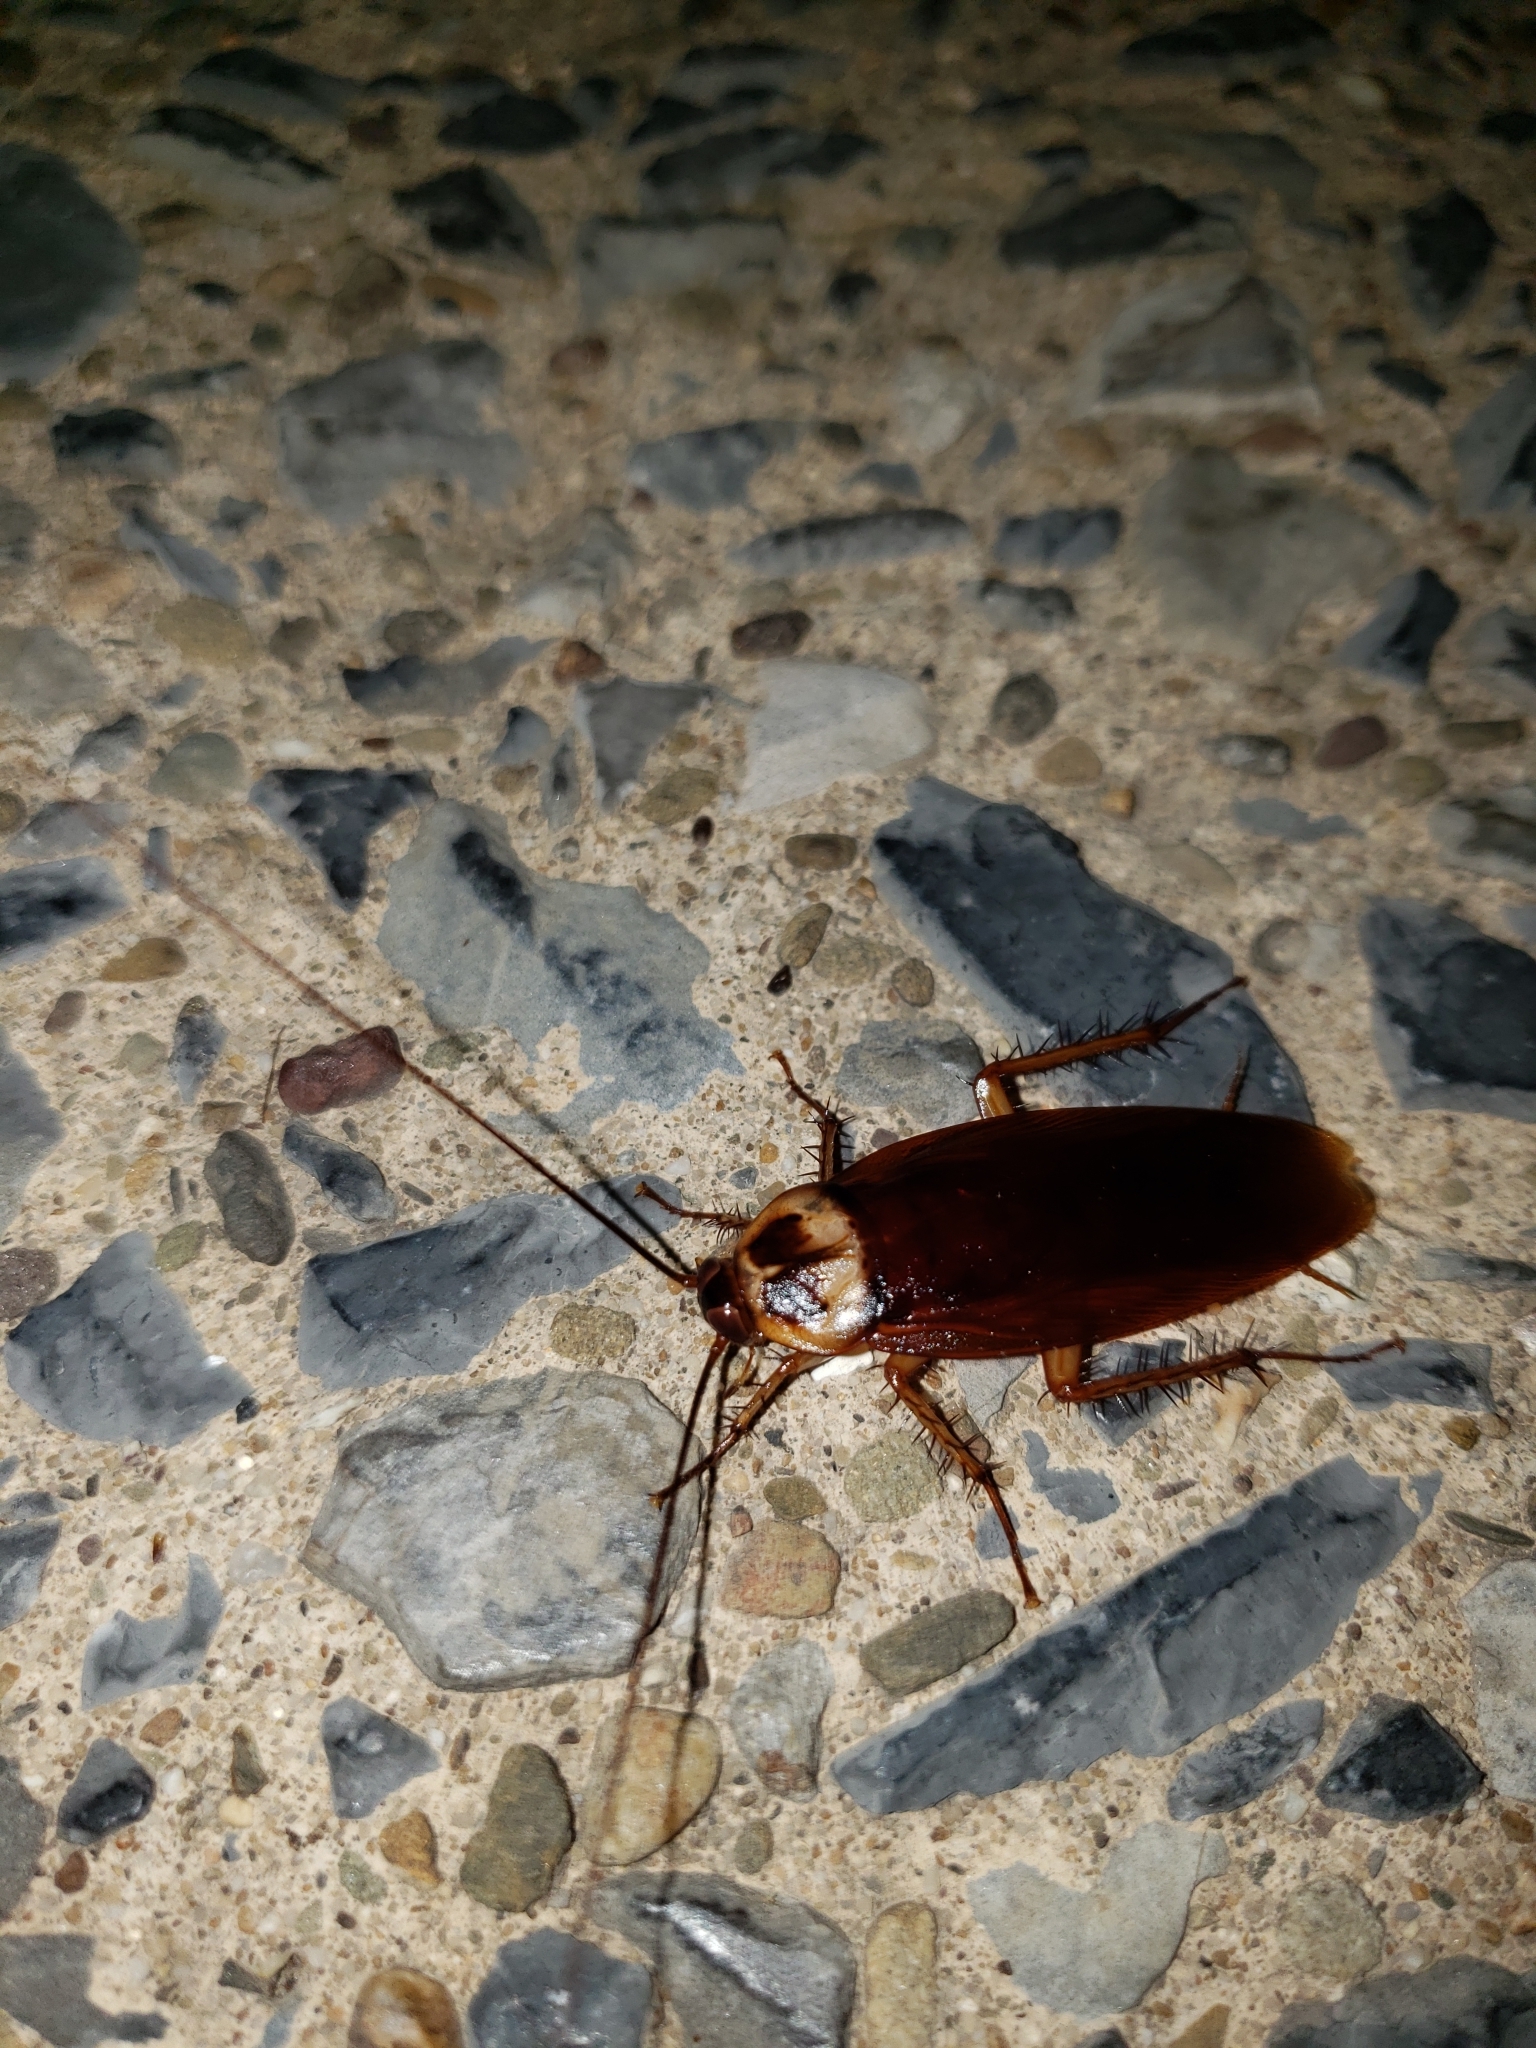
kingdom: Animalia
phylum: Arthropoda
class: Insecta
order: Blattodea
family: Blattidae
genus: Periplaneta
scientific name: Periplaneta americana
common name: American cockroach
